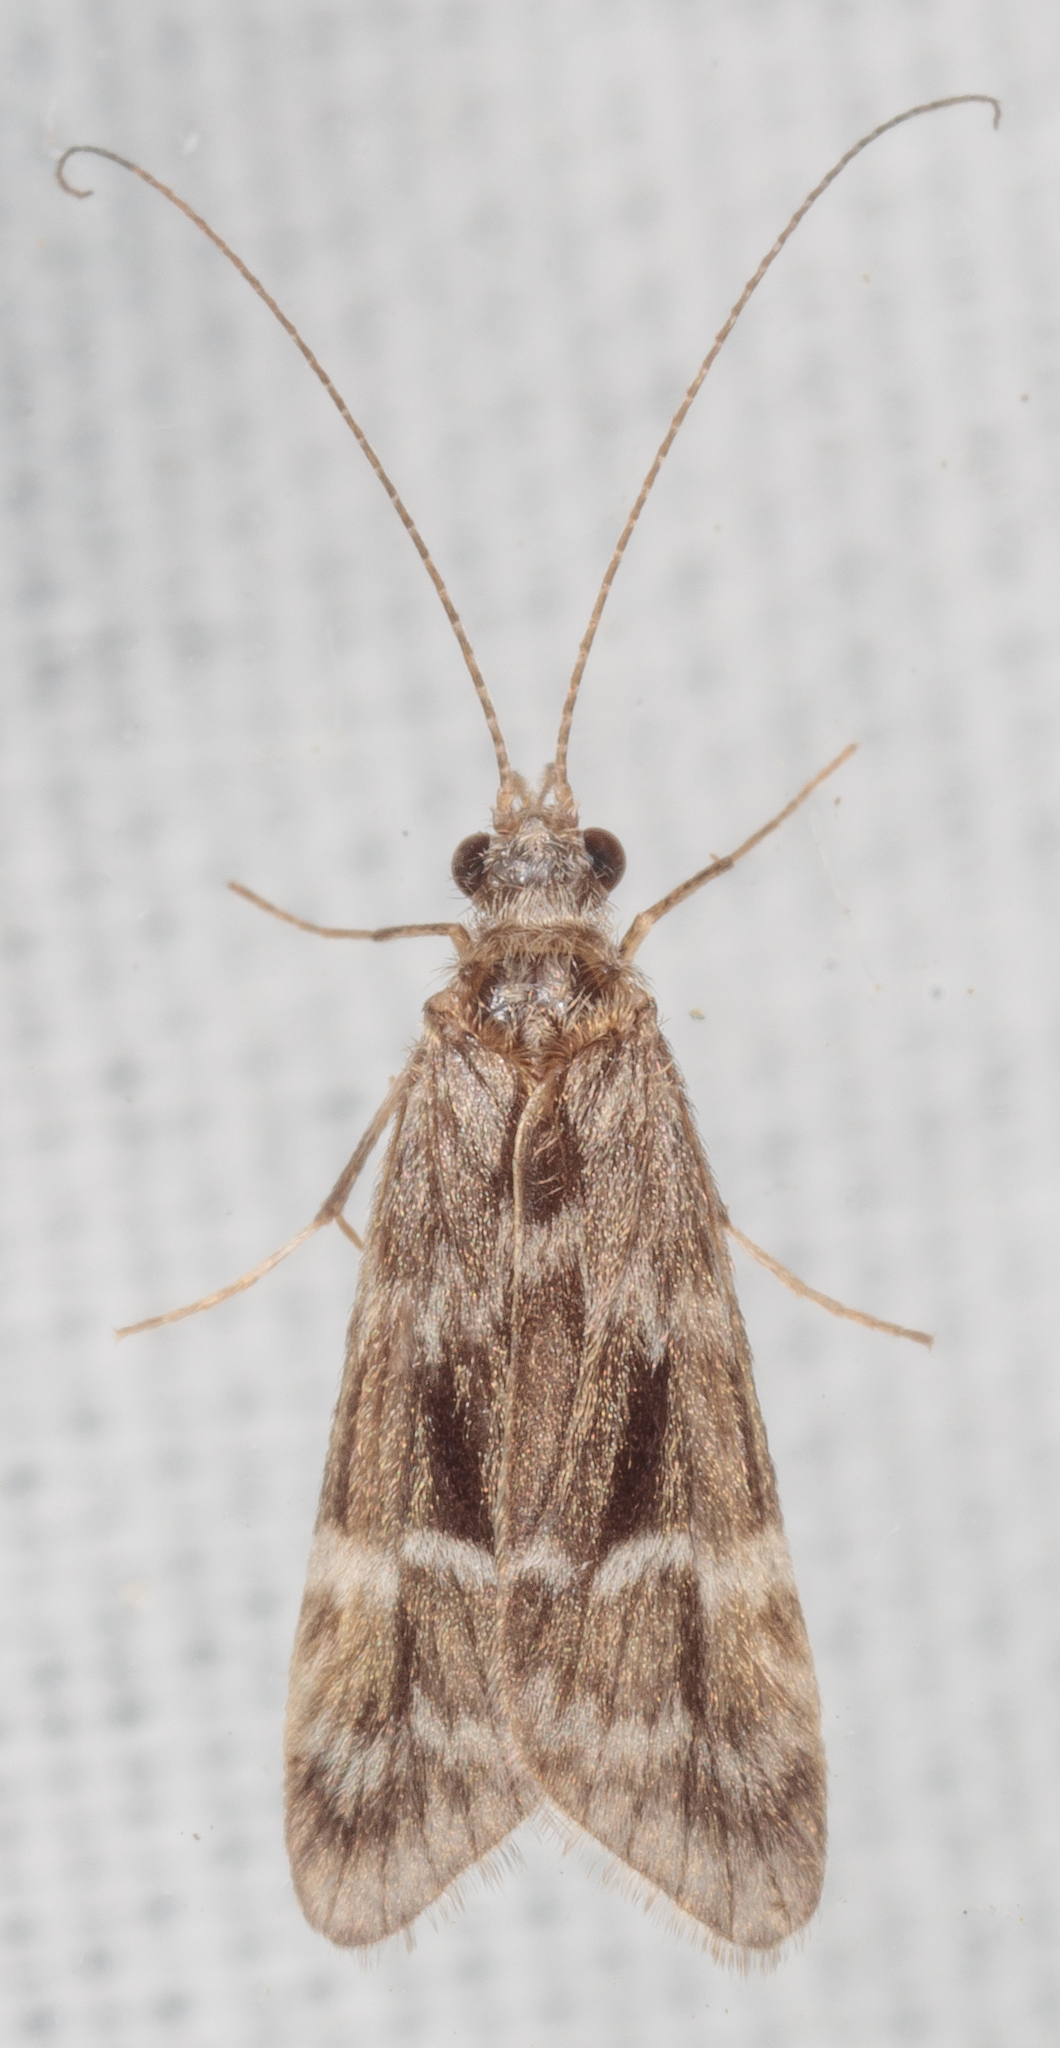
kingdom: Animalia
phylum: Arthropoda
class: Insecta
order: Trichoptera
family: Hydropsychidae
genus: Smicridea
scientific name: Smicridea fasciatella
